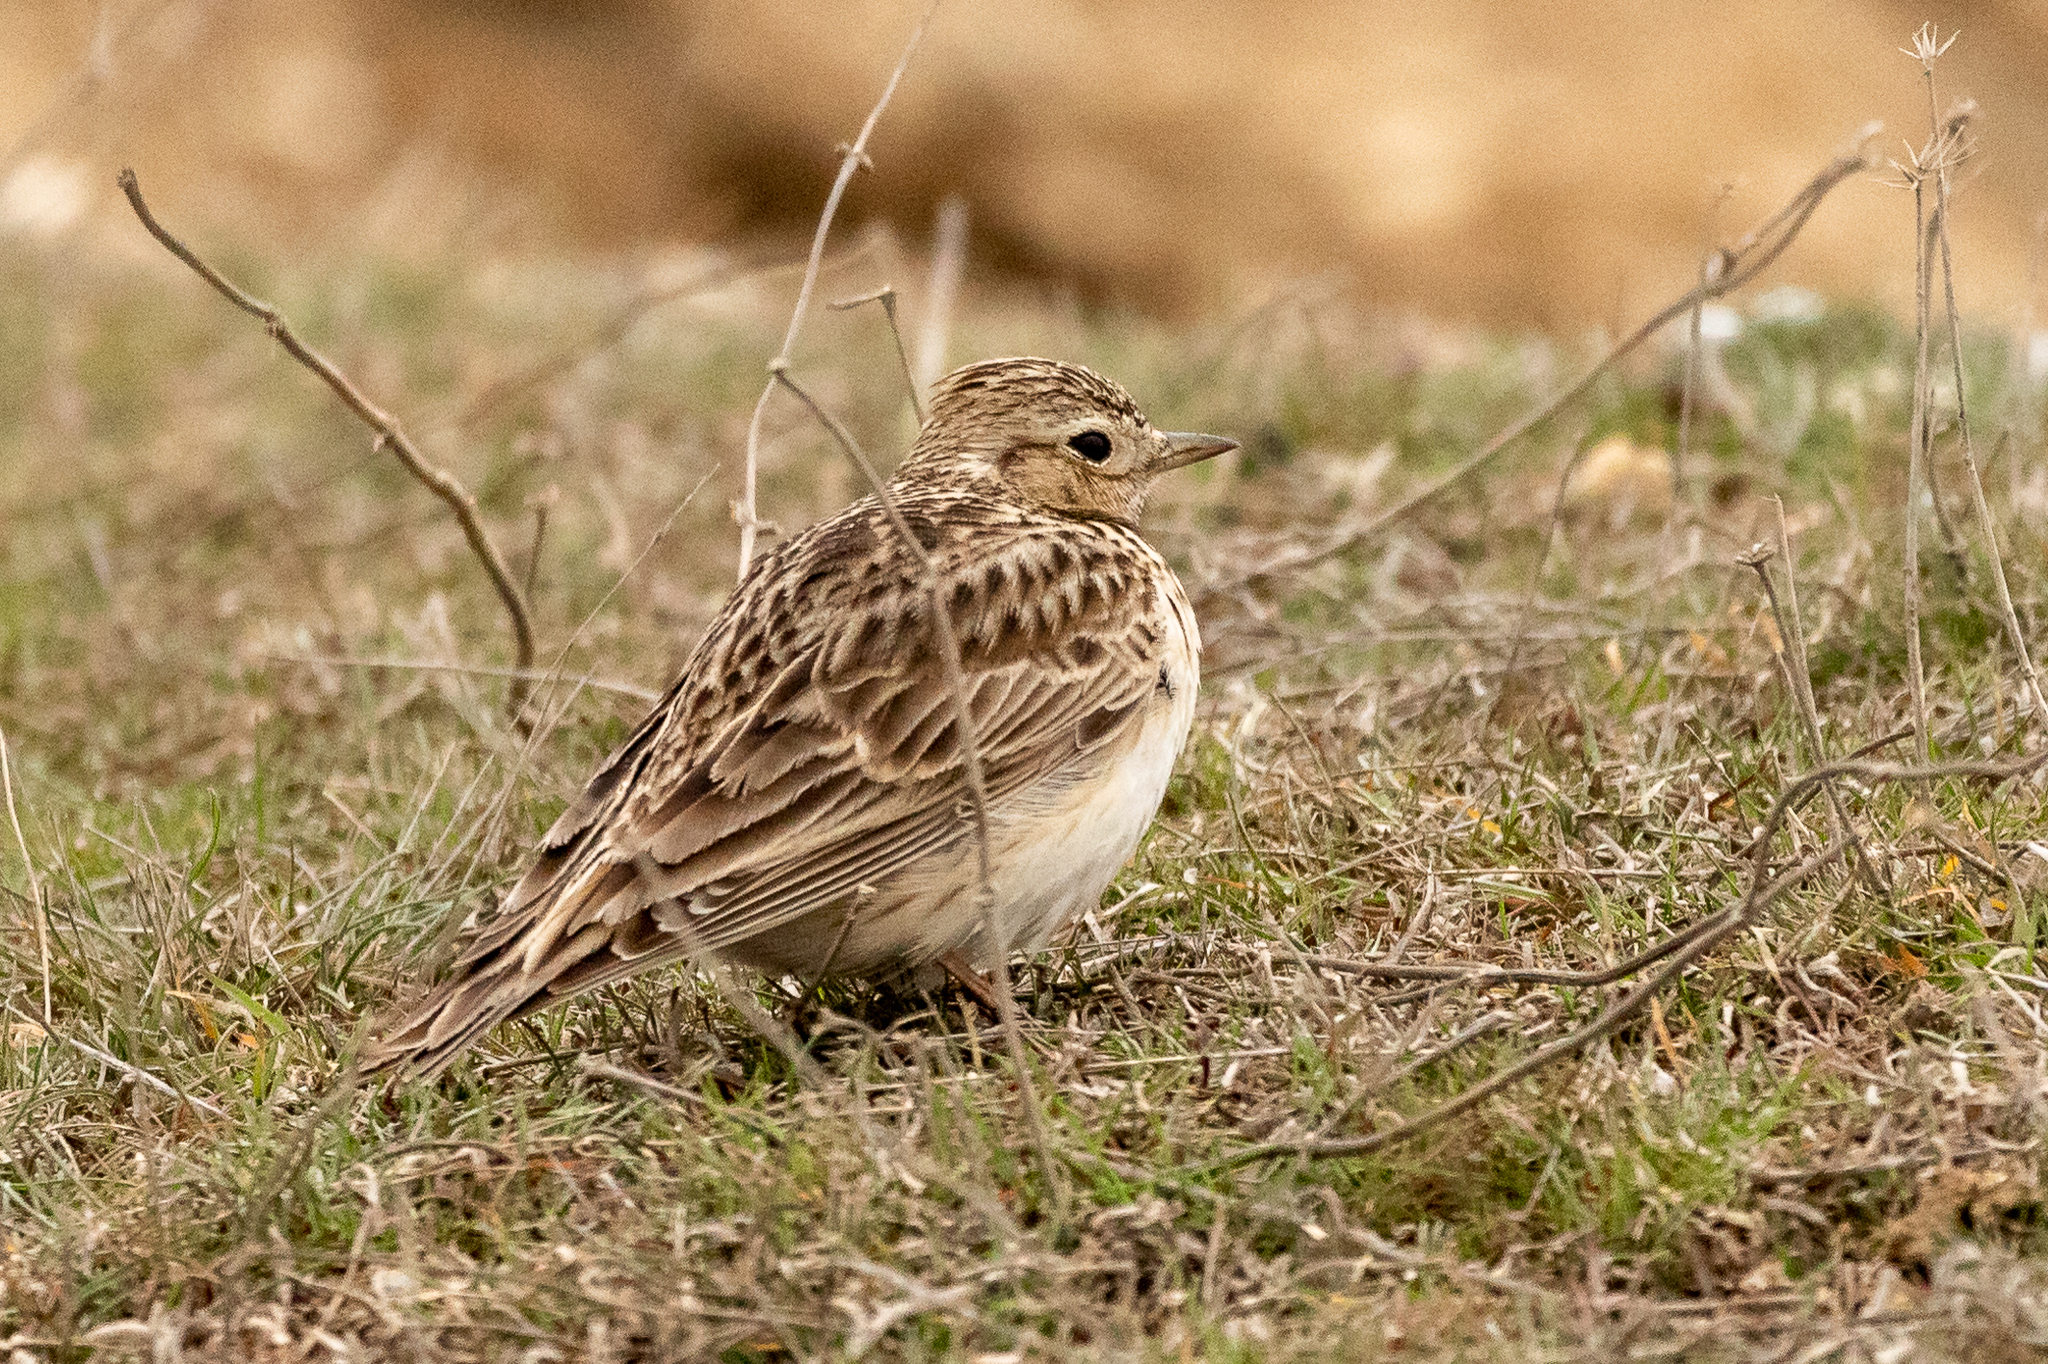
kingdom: Animalia
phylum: Chordata
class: Aves
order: Passeriformes
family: Alaudidae
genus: Alauda
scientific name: Alauda arvensis
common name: Eurasian skylark
